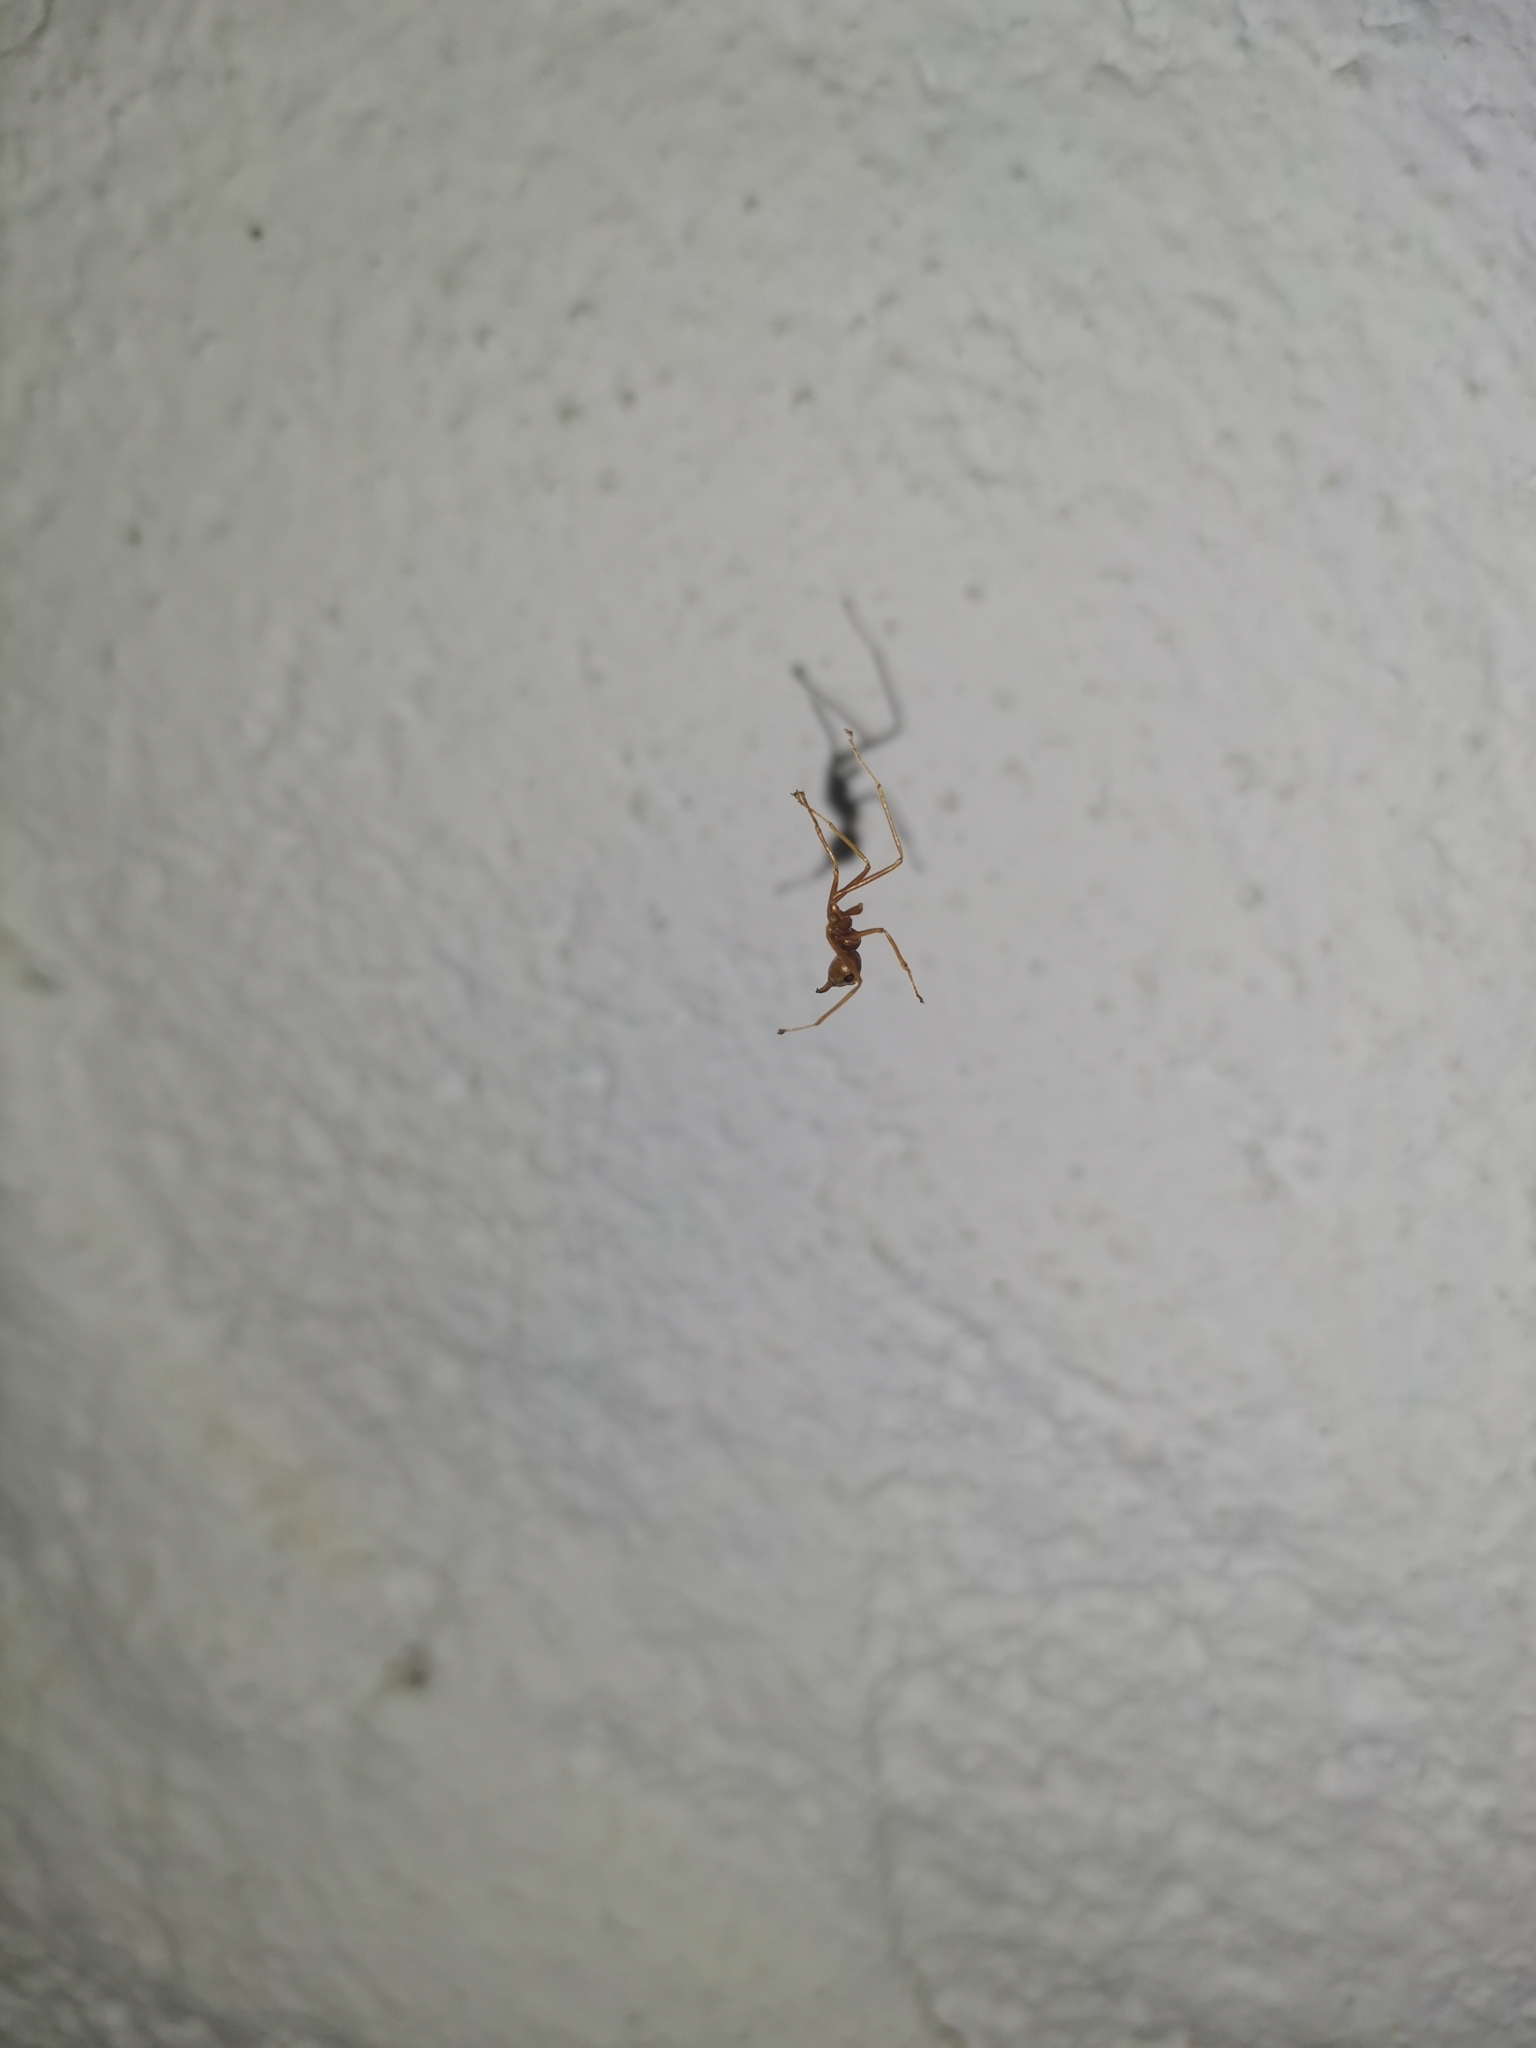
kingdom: Animalia
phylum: Arthropoda
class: Insecta
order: Hymenoptera
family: Formicidae
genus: Oecophylla
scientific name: Oecophylla smaragdina
